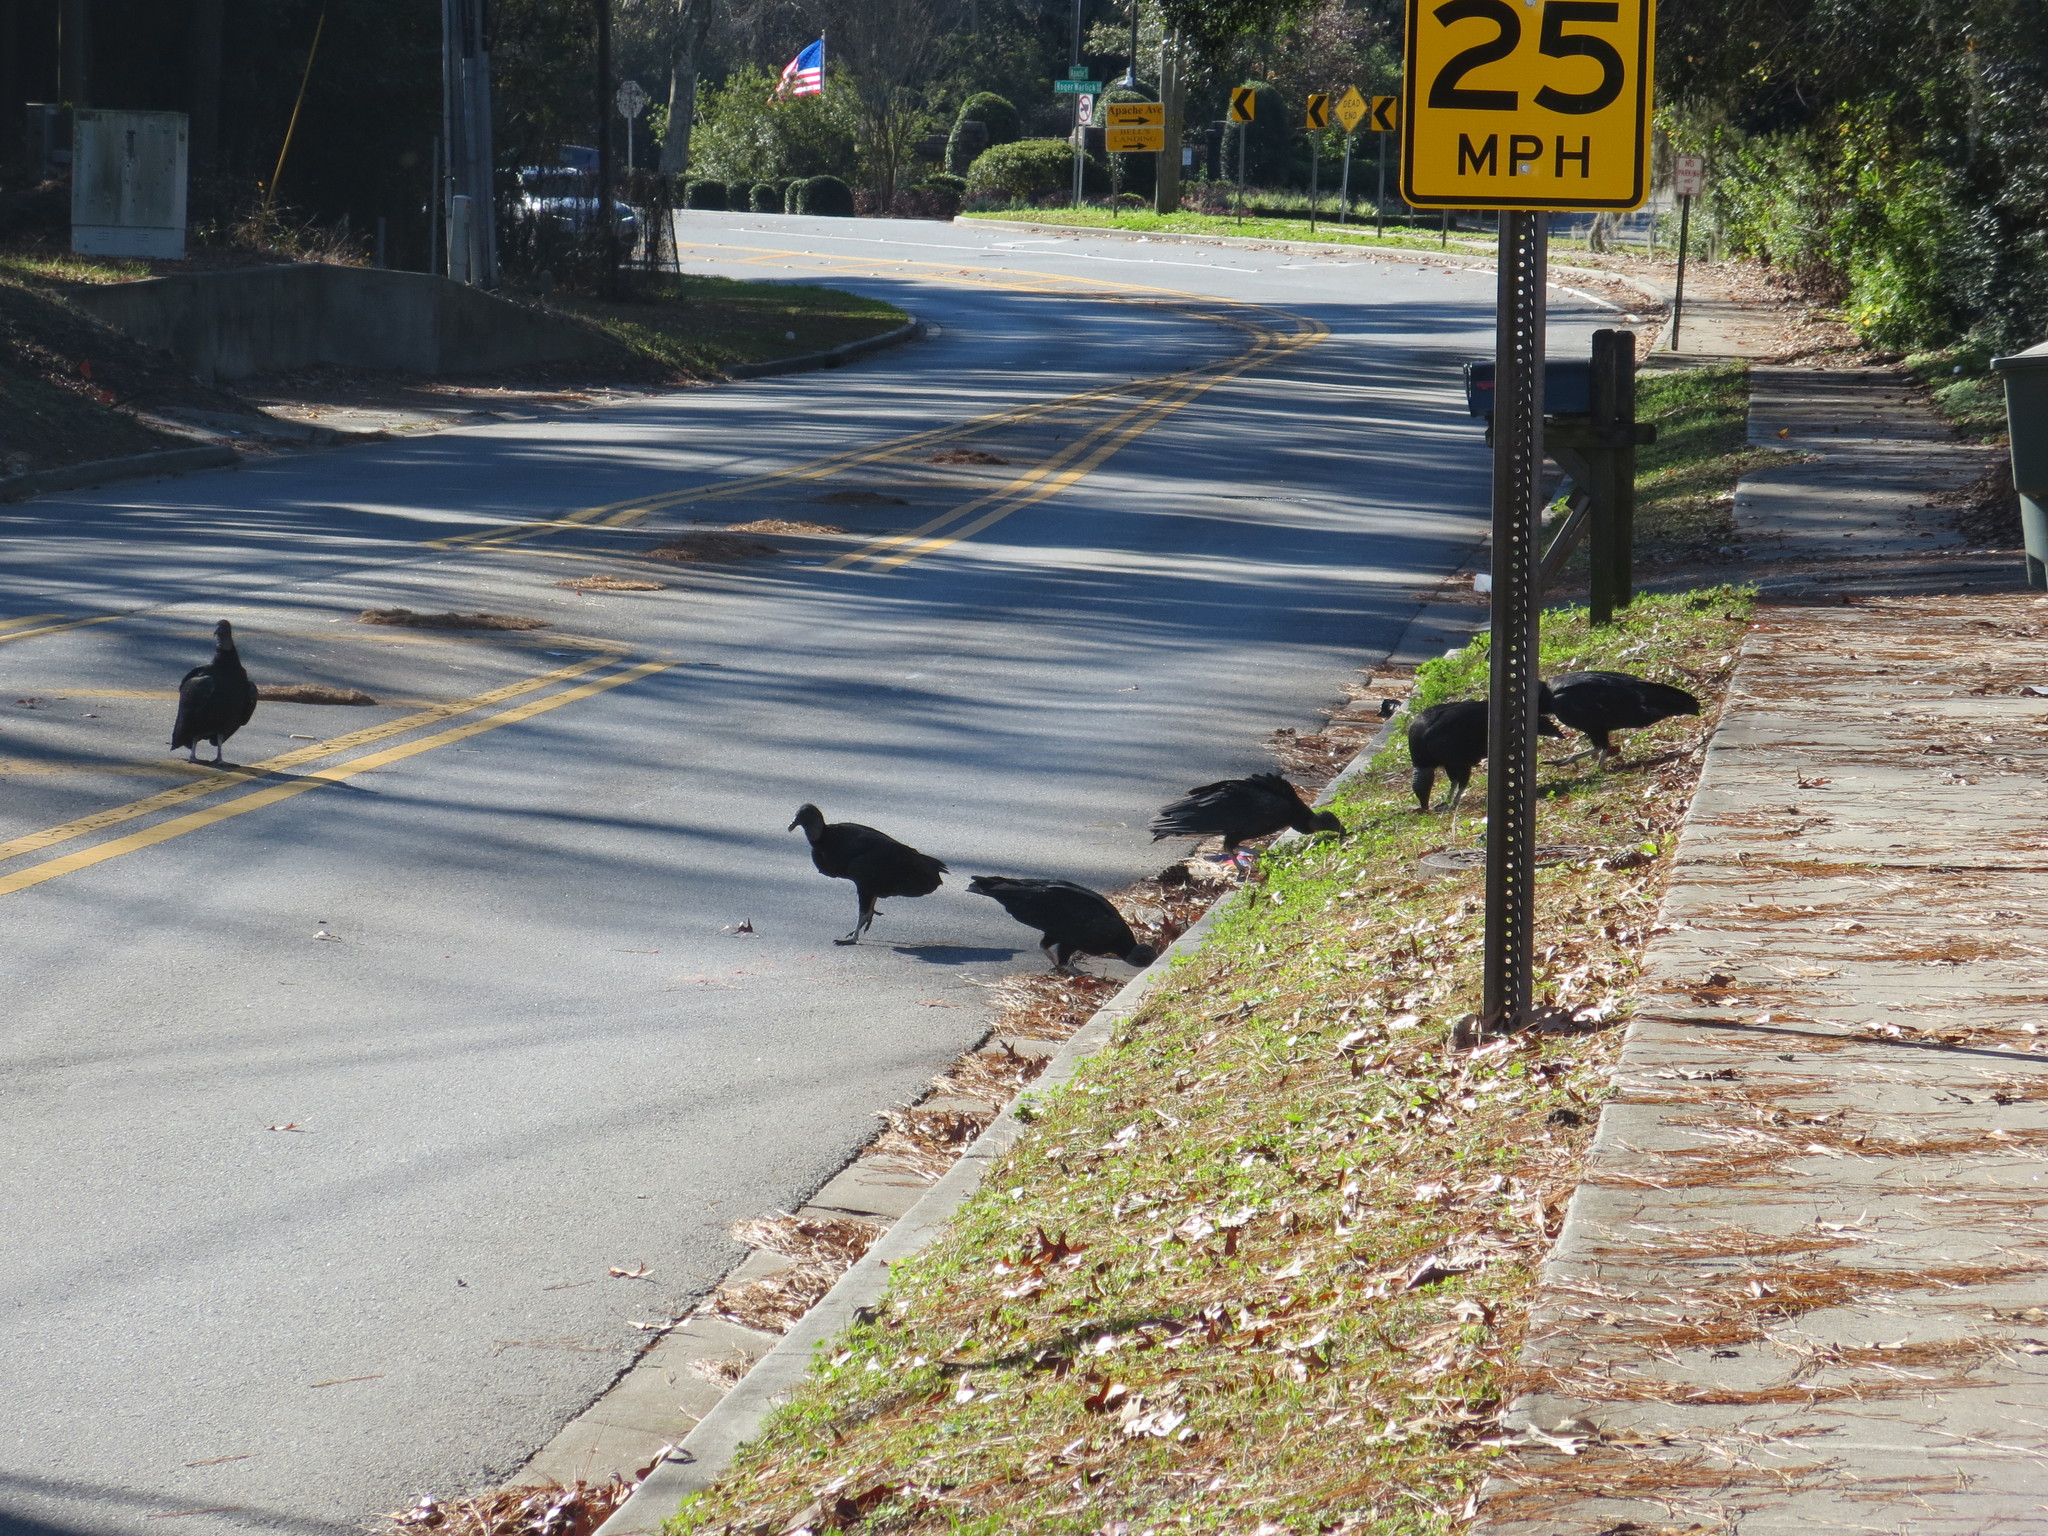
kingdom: Animalia
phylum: Chordata
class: Aves
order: Accipitriformes
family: Cathartidae
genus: Coragyps
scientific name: Coragyps atratus
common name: Black vulture
